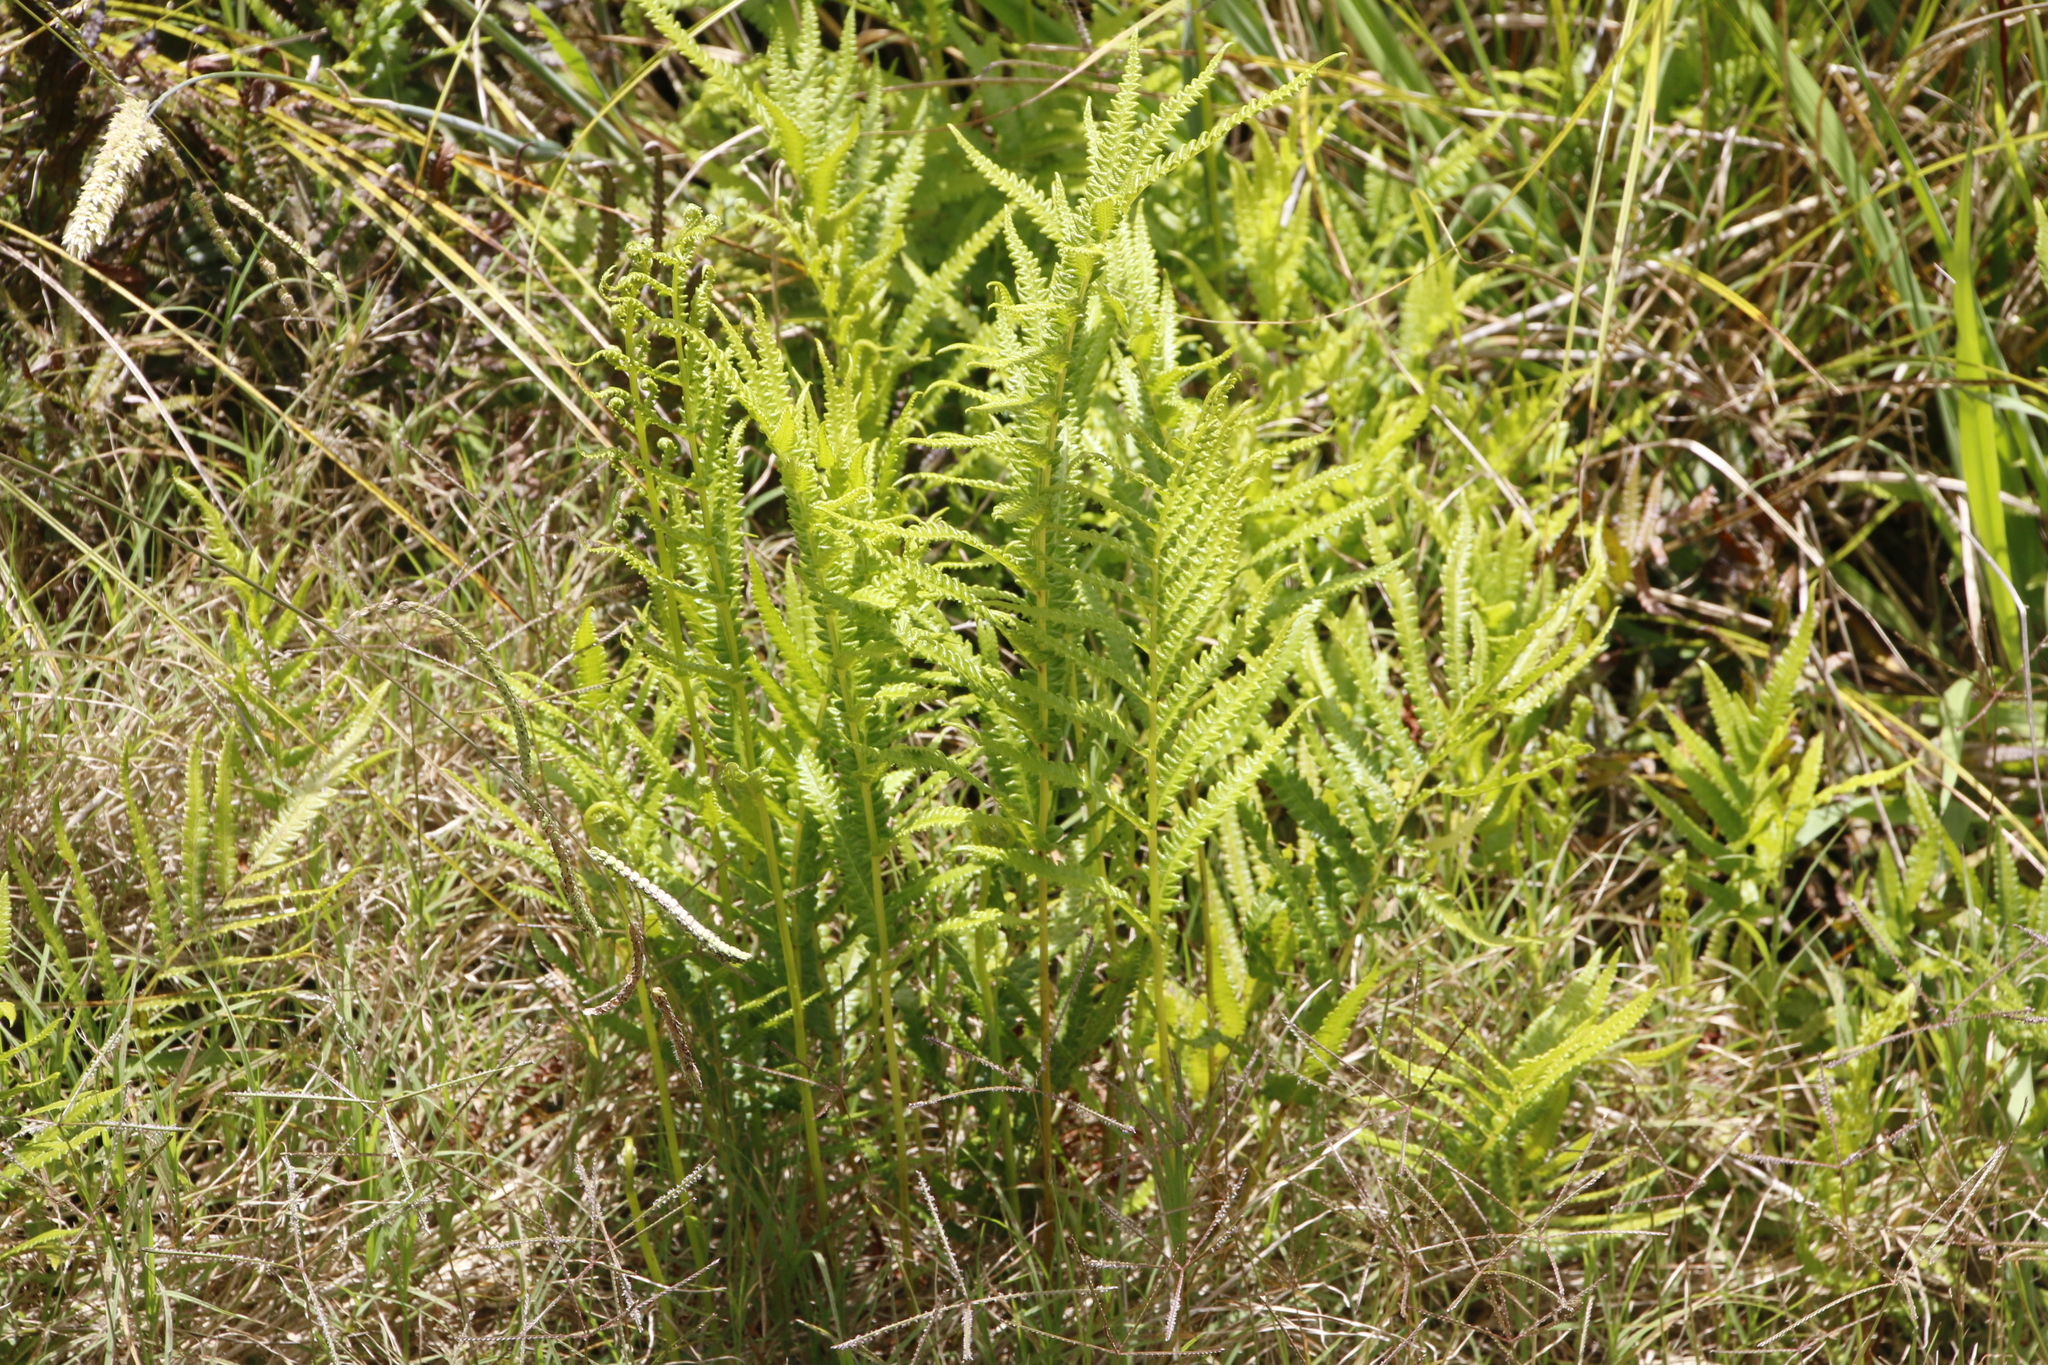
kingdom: Plantae
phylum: Tracheophyta
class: Polypodiopsida
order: Polypodiales
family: Thelypteridaceae
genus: Cyclosorus
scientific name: Cyclosorus interruptus
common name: Neke fern
